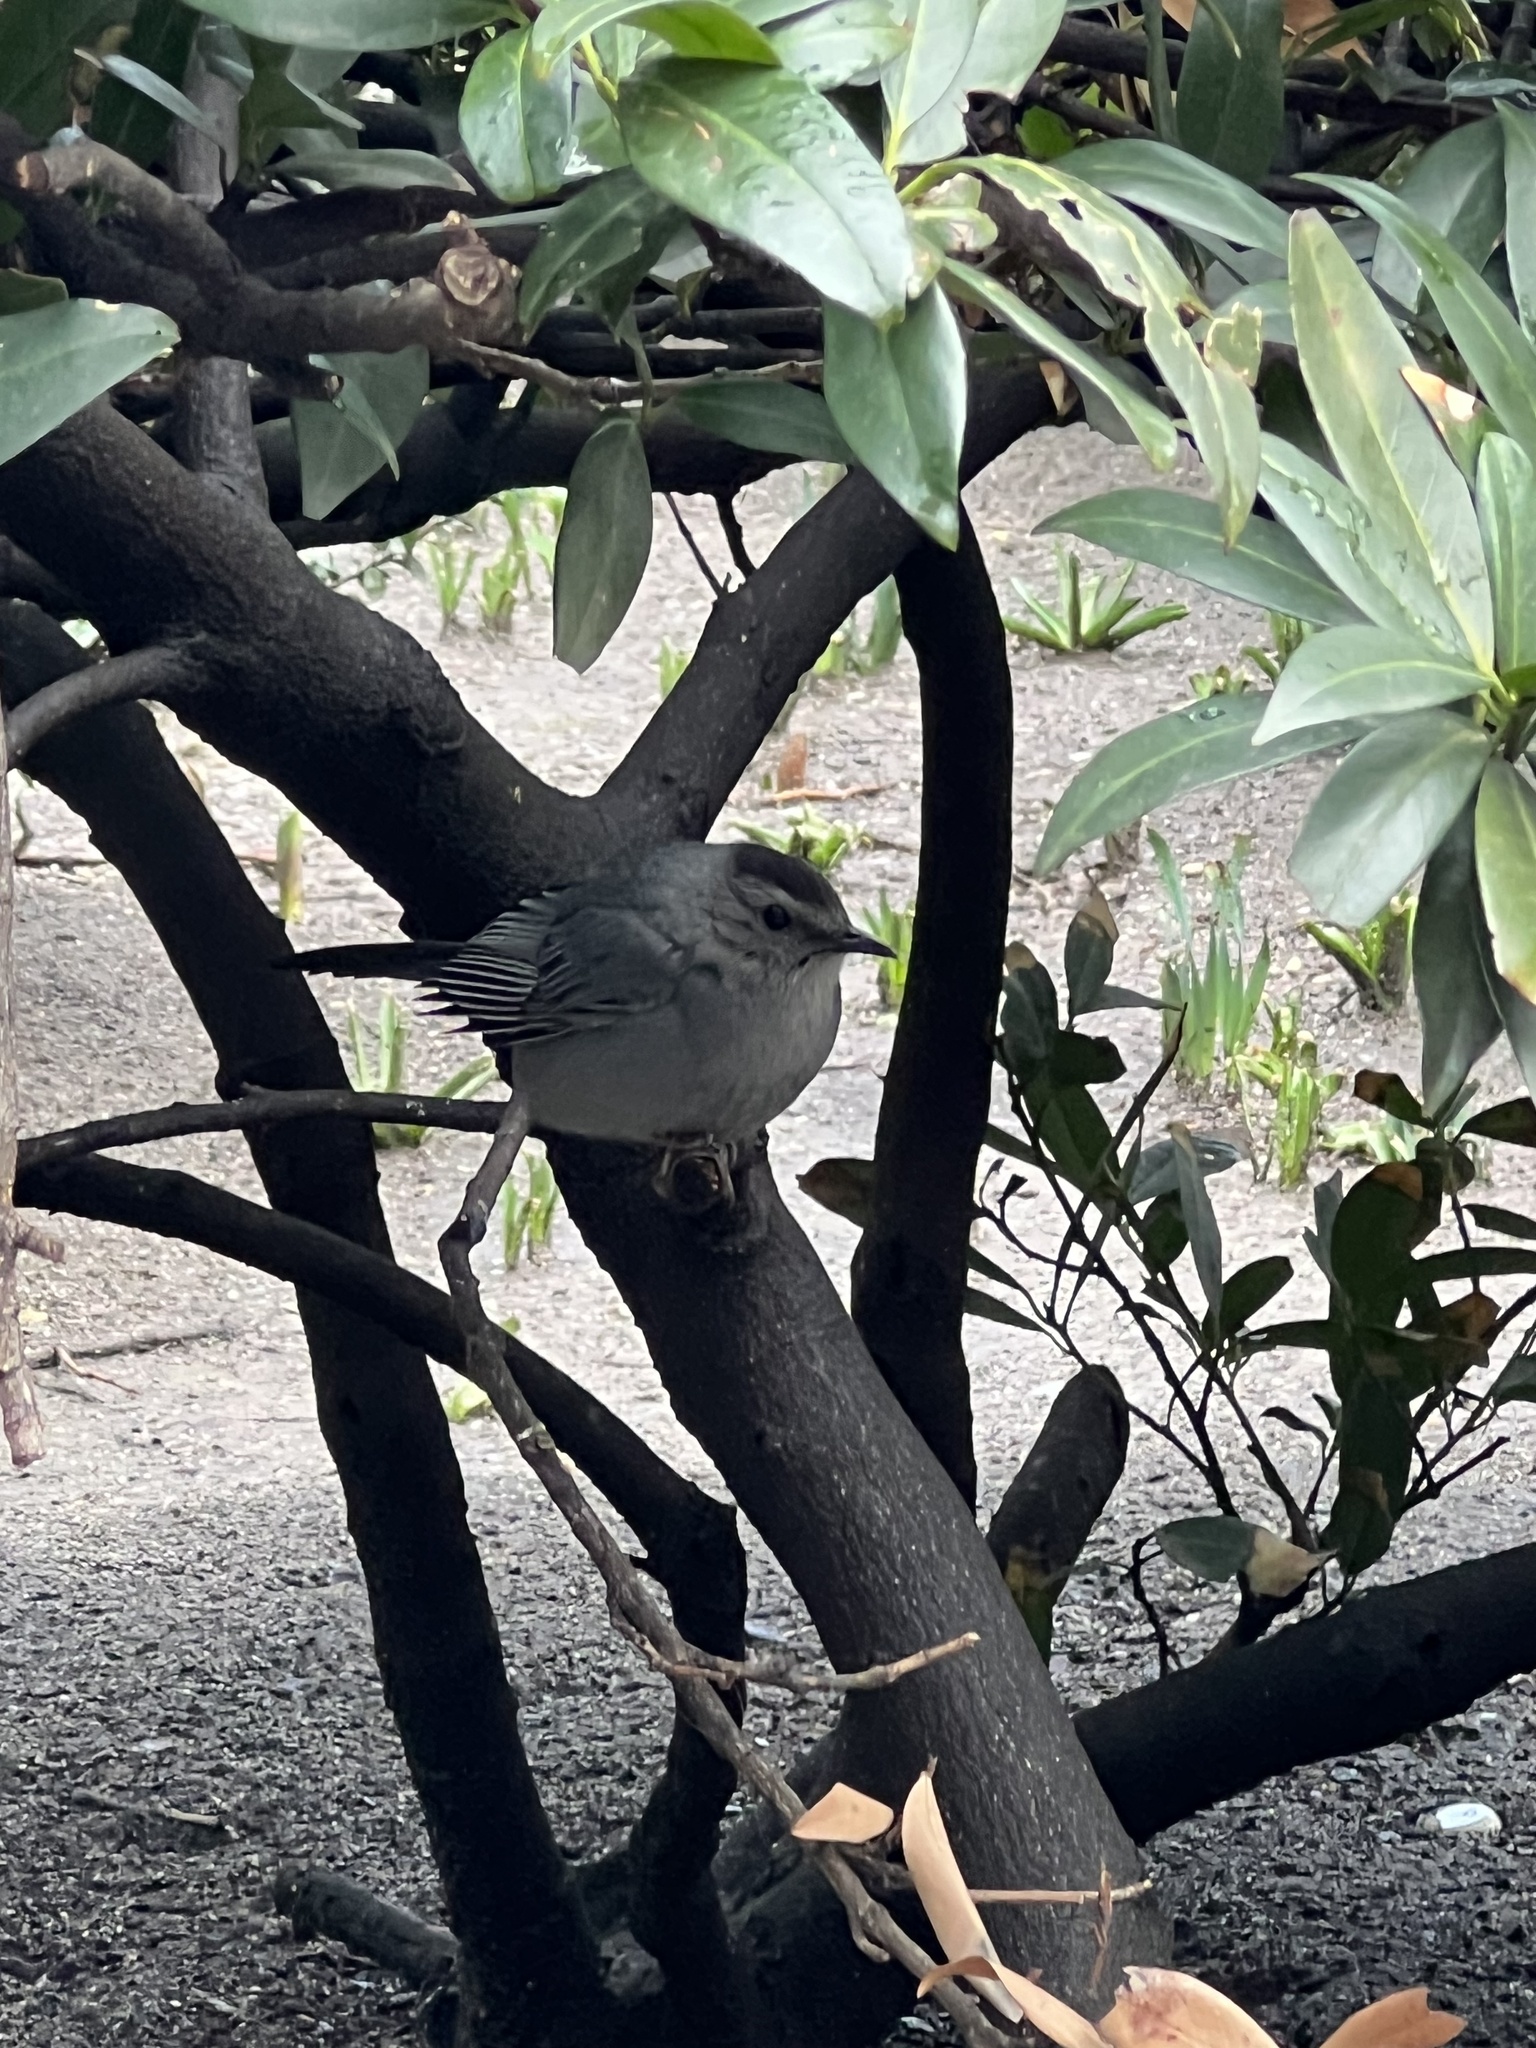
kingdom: Animalia
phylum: Chordata
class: Aves
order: Passeriformes
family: Mimidae
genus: Dumetella
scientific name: Dumetella carolinensis
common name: Gray catbird
